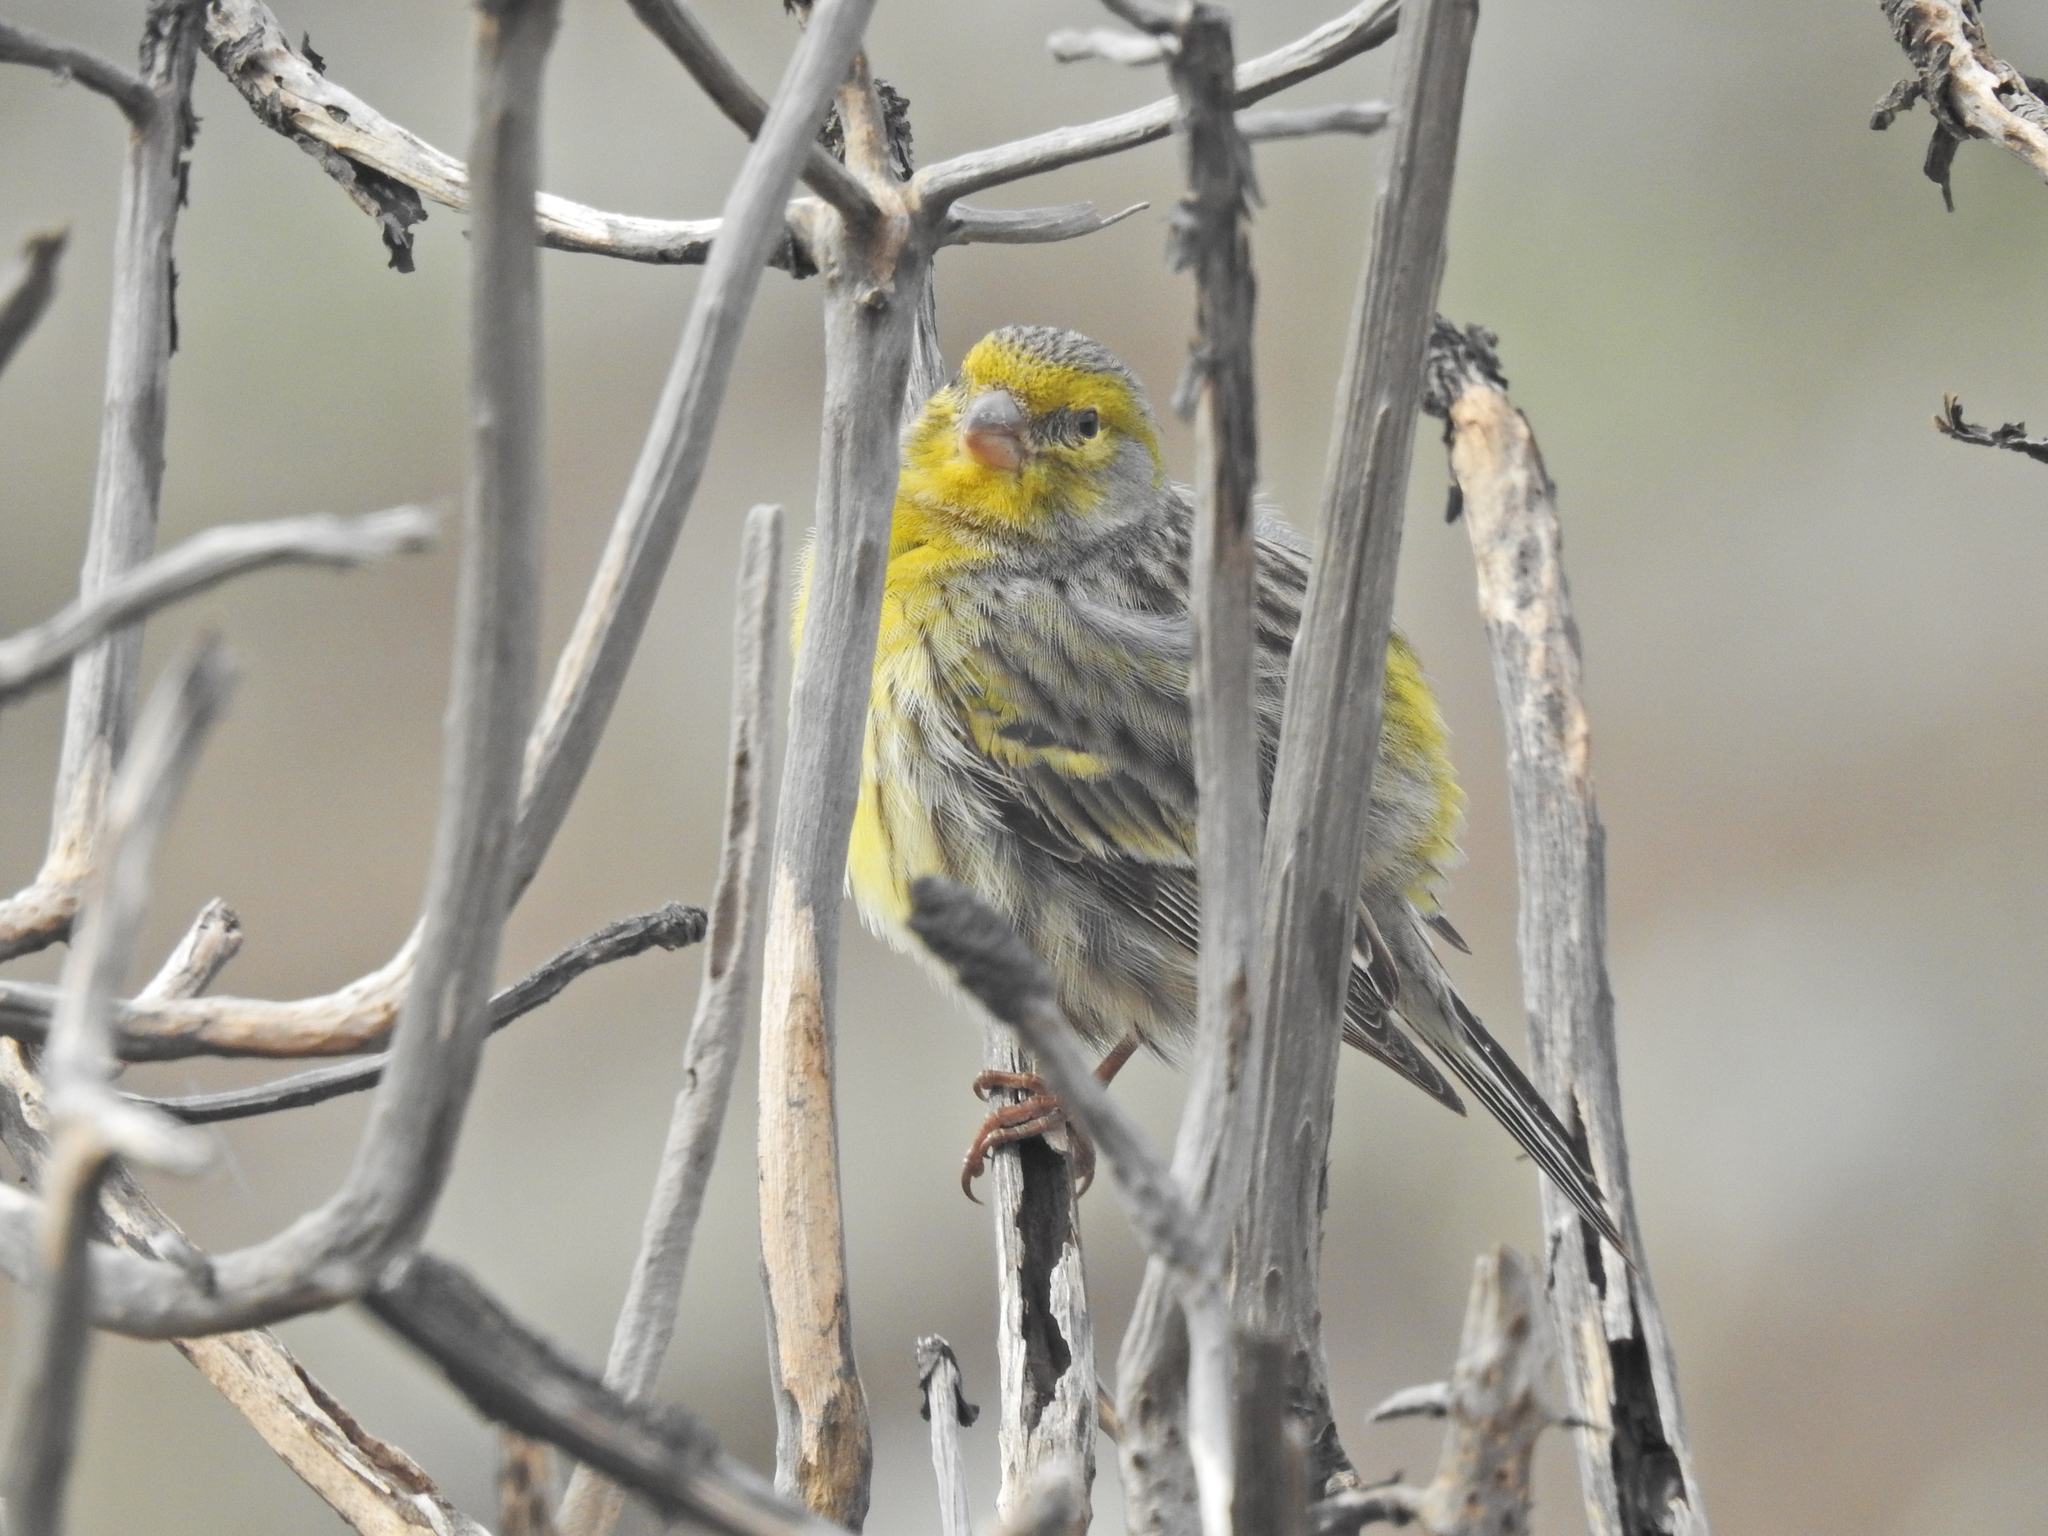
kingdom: Animalia
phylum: Chordata
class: Aves
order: Passeriformes
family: Fringillidae
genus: Serinus
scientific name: Serinus canaria
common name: Atlantic canary
